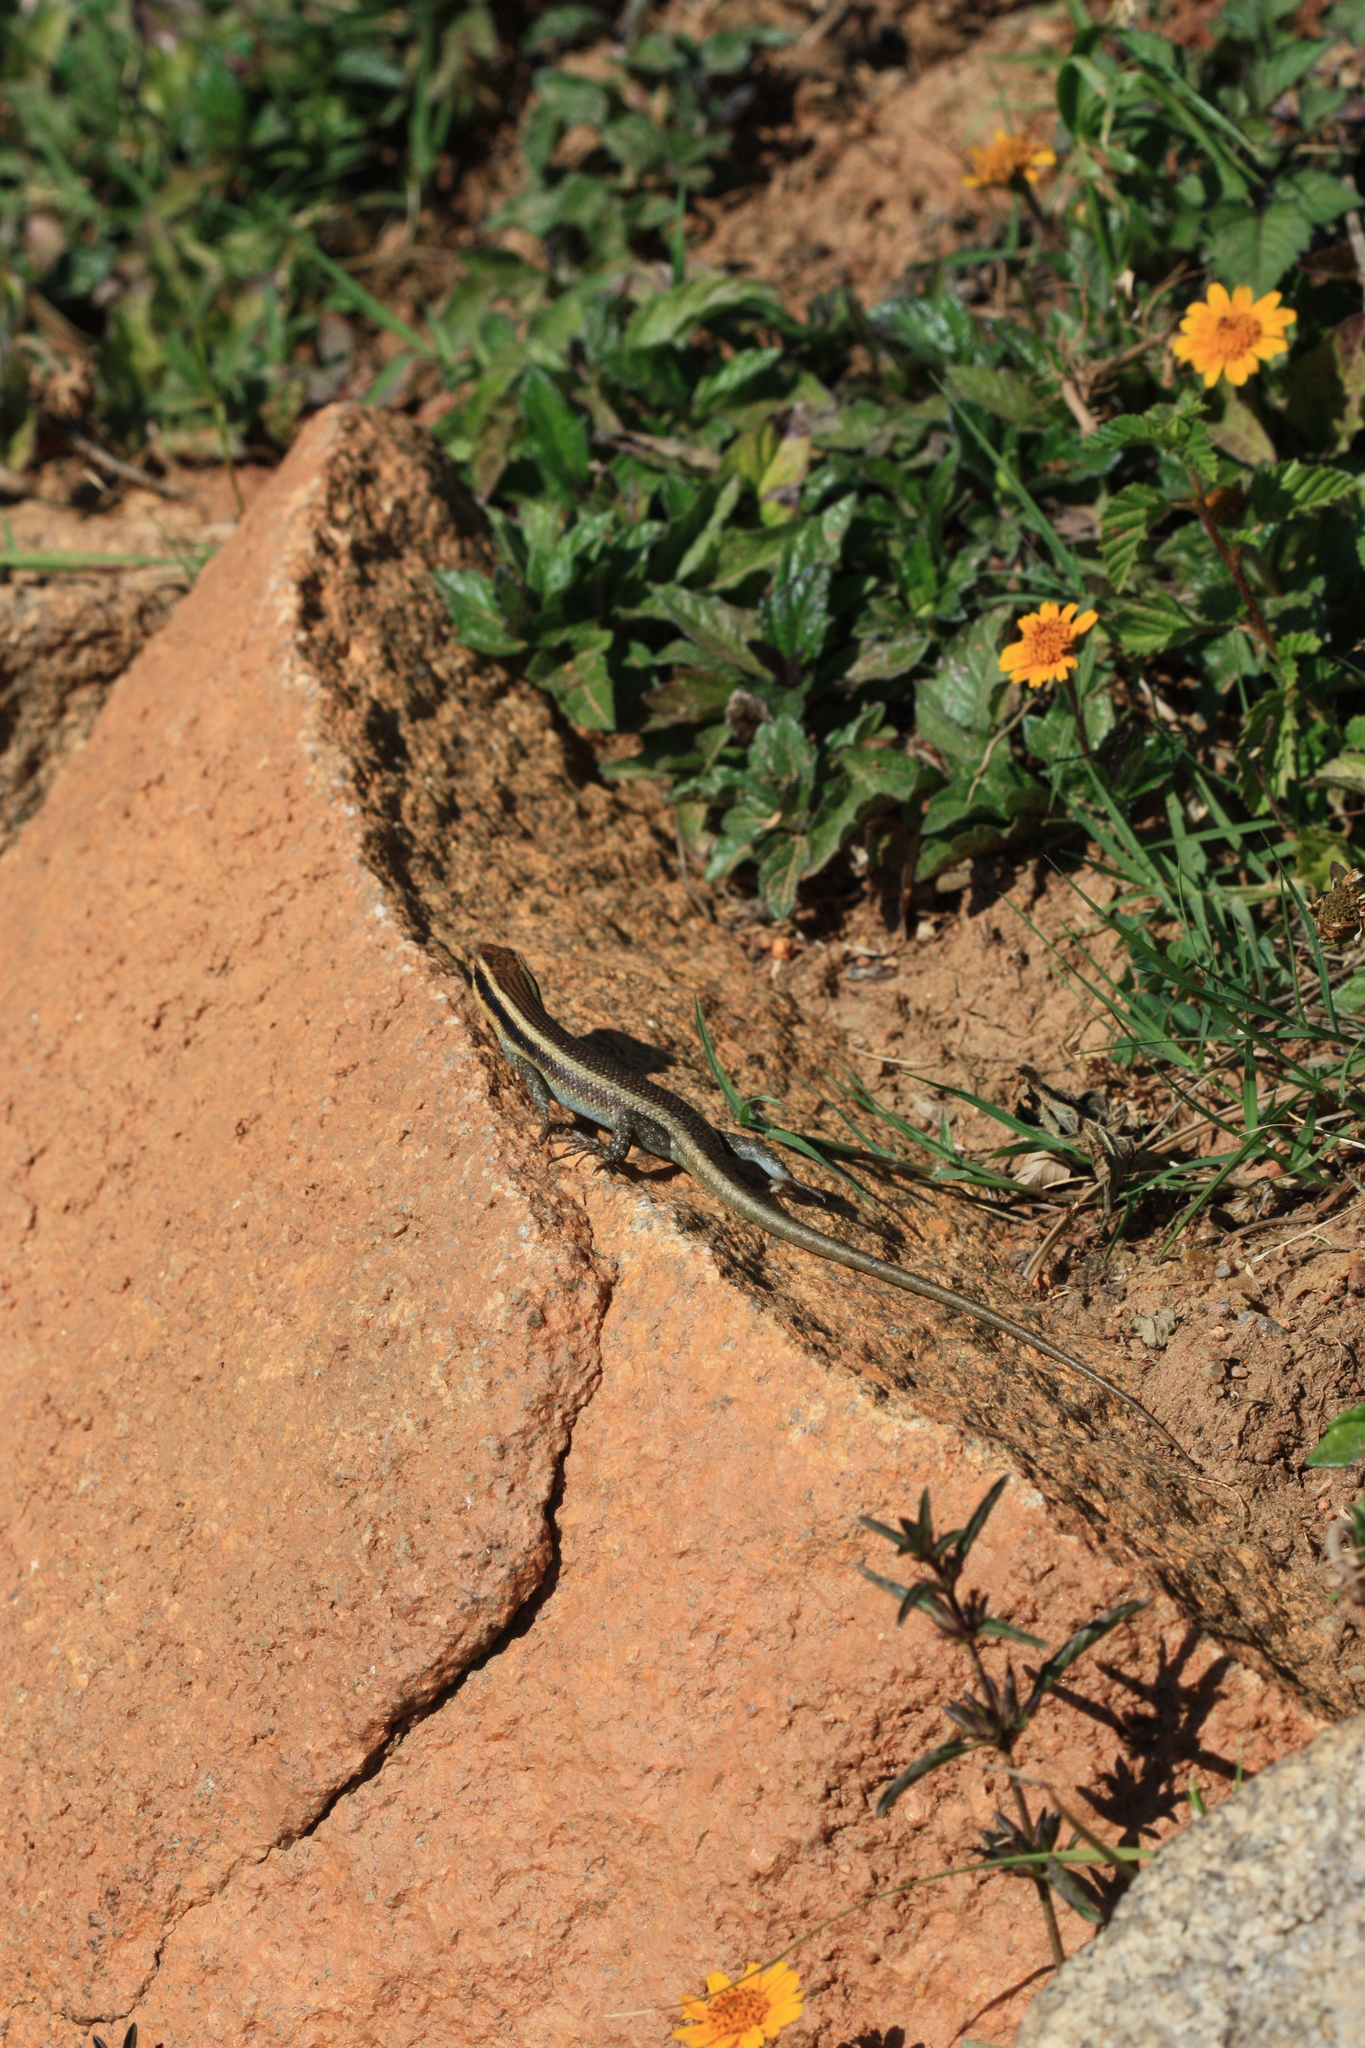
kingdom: Animalia
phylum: Chordata
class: Squamata
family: Scincidae
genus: Trachylepis
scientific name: Trachylepis wahlbergii
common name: Wahlberg’s striped skink
